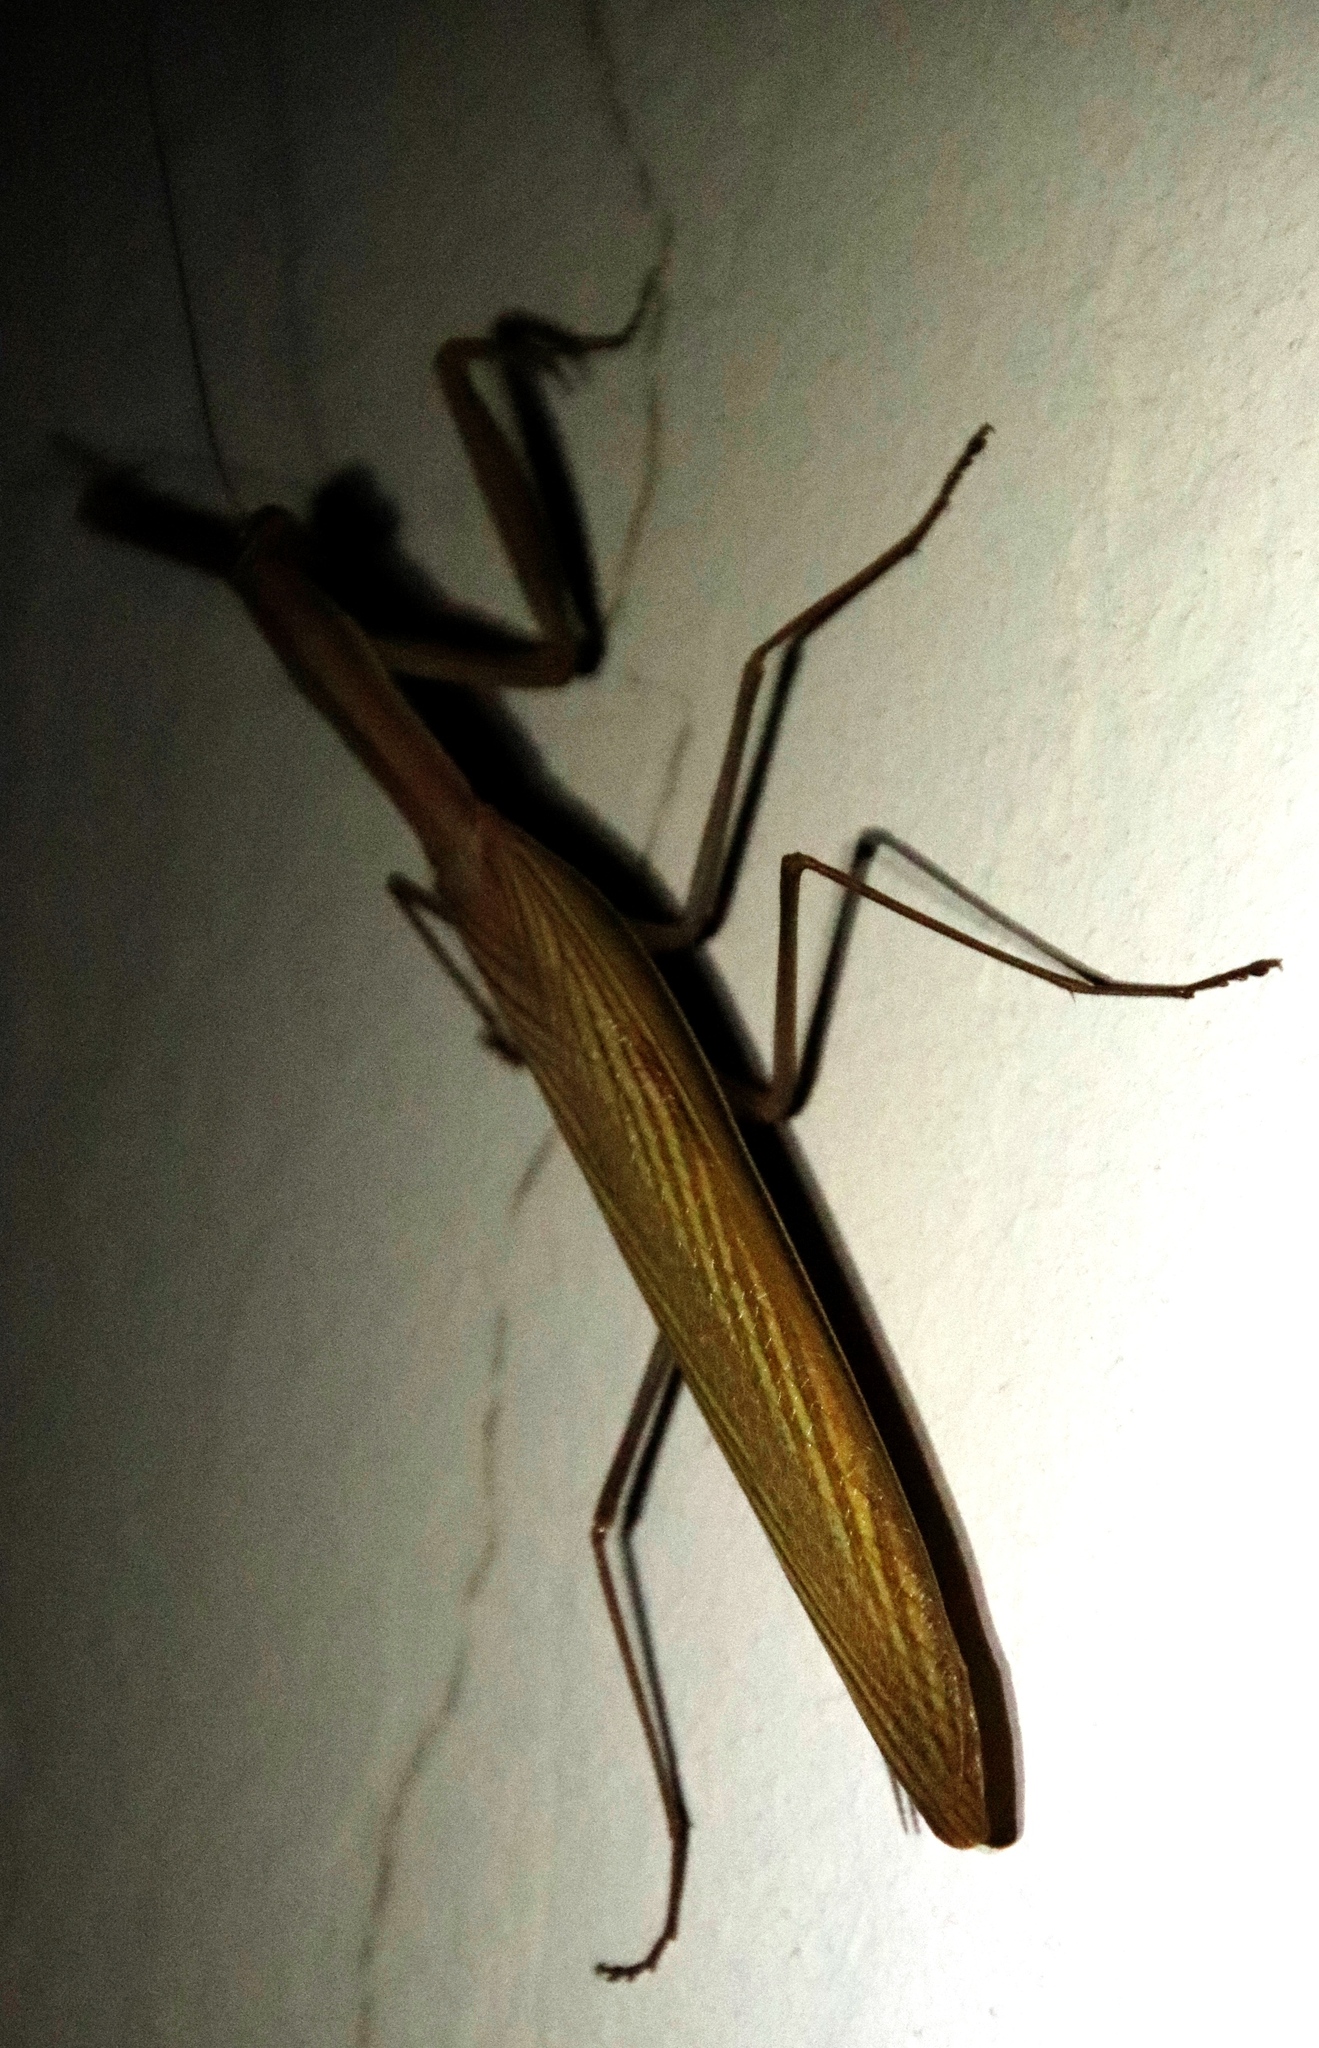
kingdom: Animalia
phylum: Arthropoda
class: Insecta
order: Mantodea
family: Mantidae
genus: Mantis
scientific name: Mantis religiosa
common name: Praying mantis
